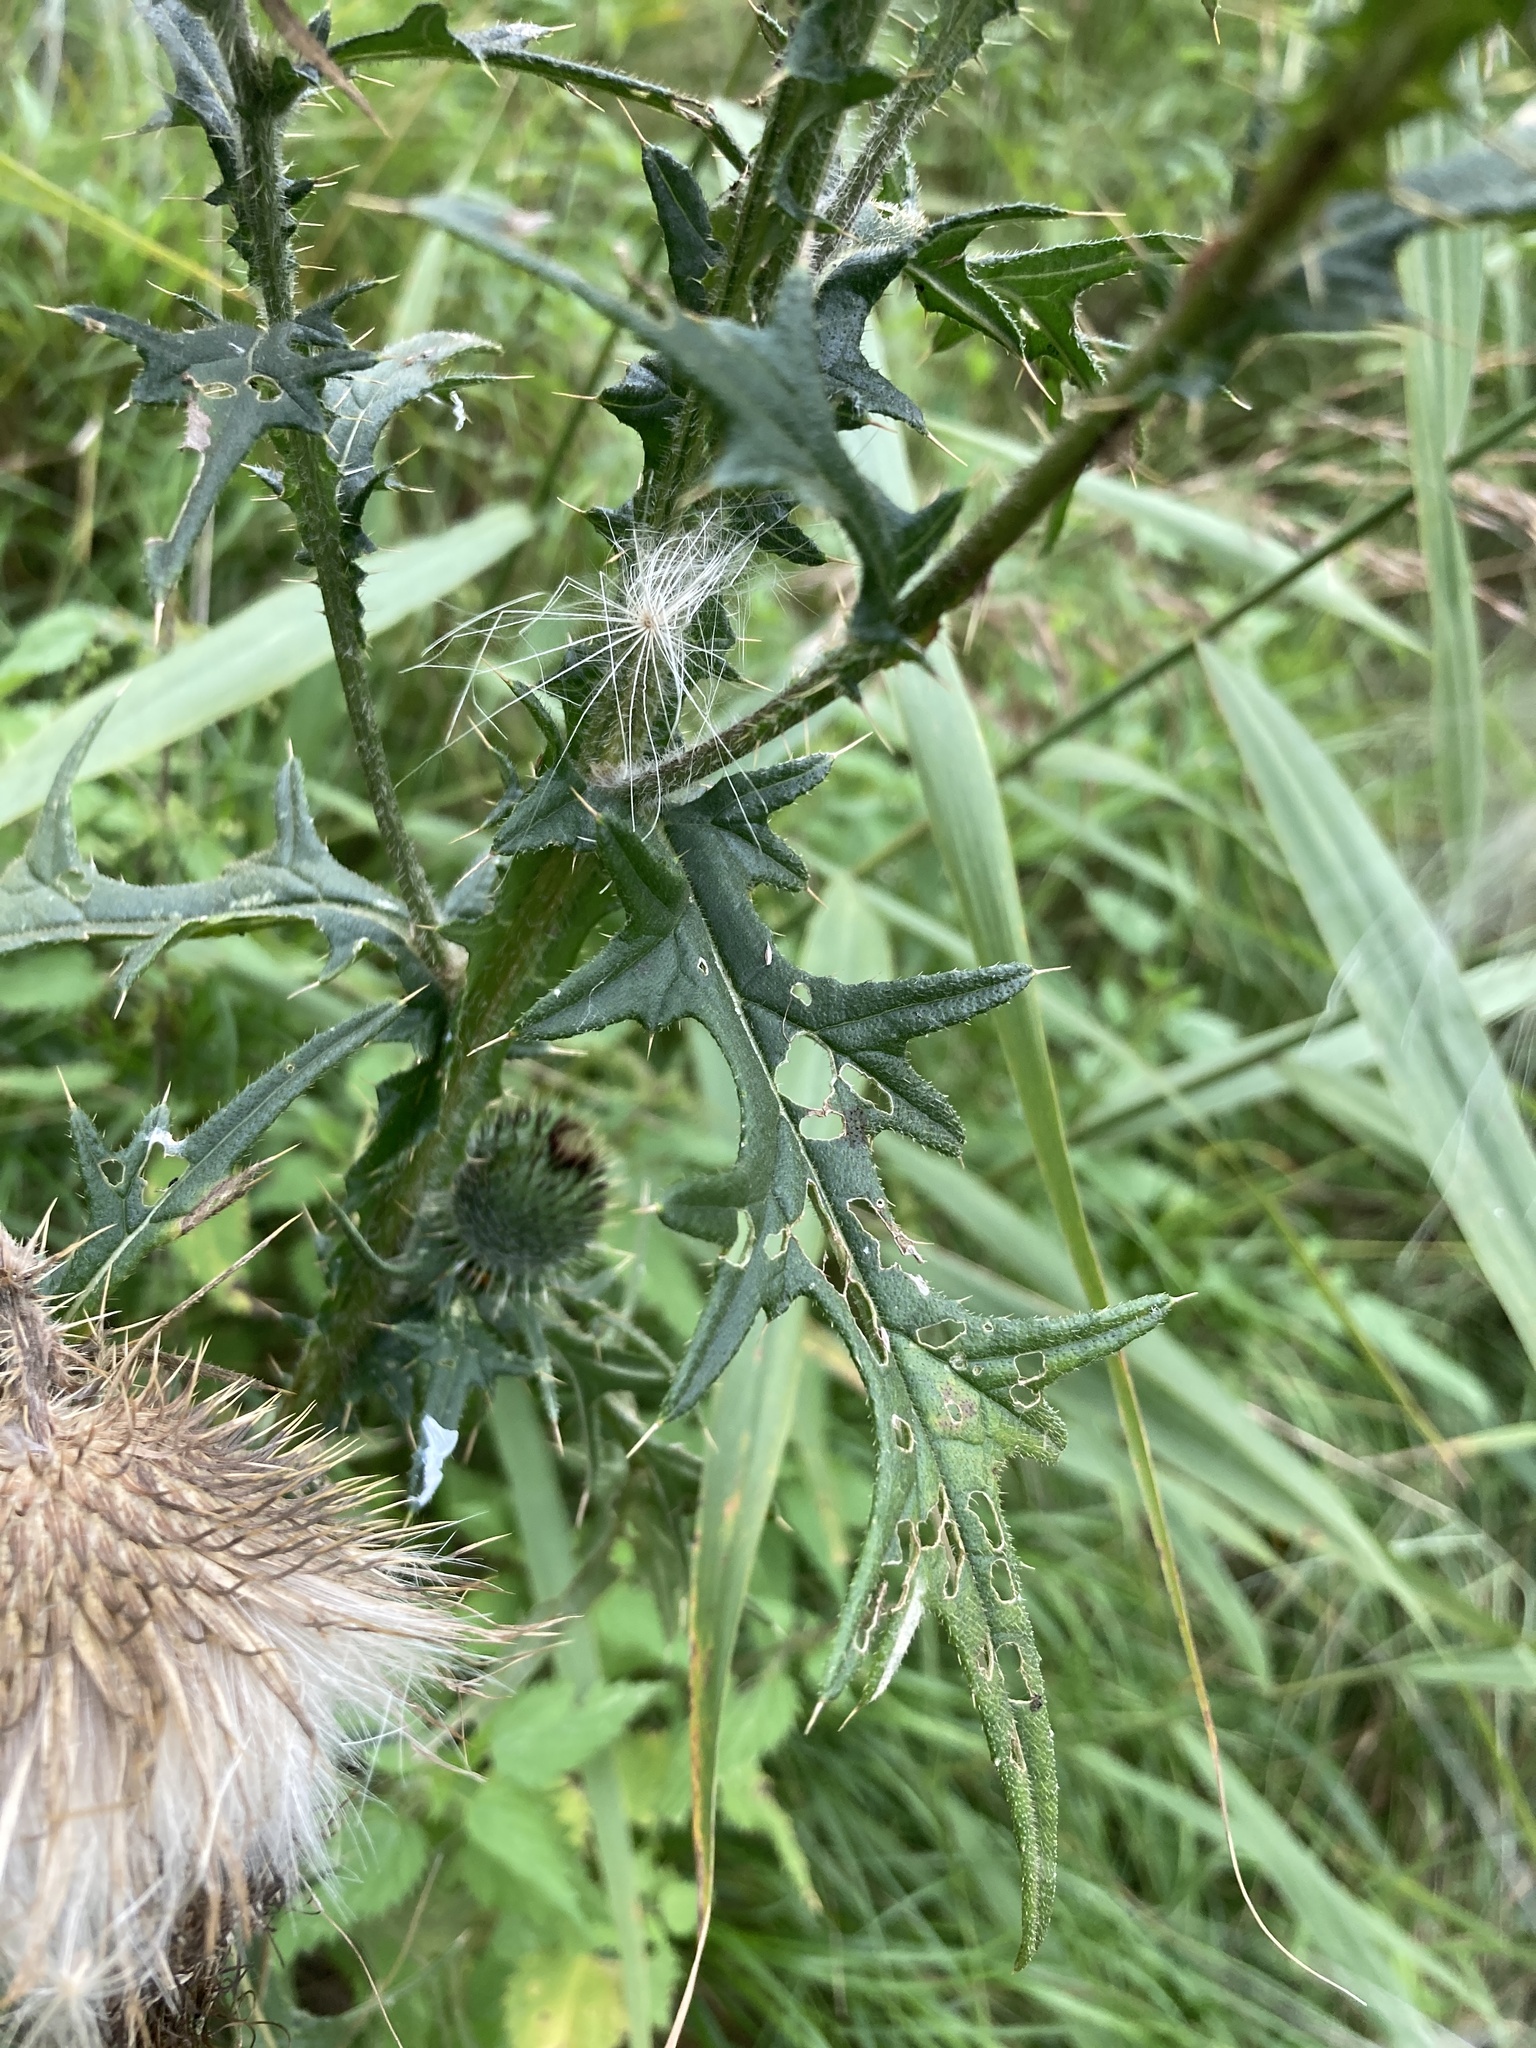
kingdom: Plantae
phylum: Tracheophyta
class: Magnoliopsida
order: Asterales
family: Asteraceae
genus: Cirsium
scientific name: Cirsium vulgare
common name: Bull thistle
